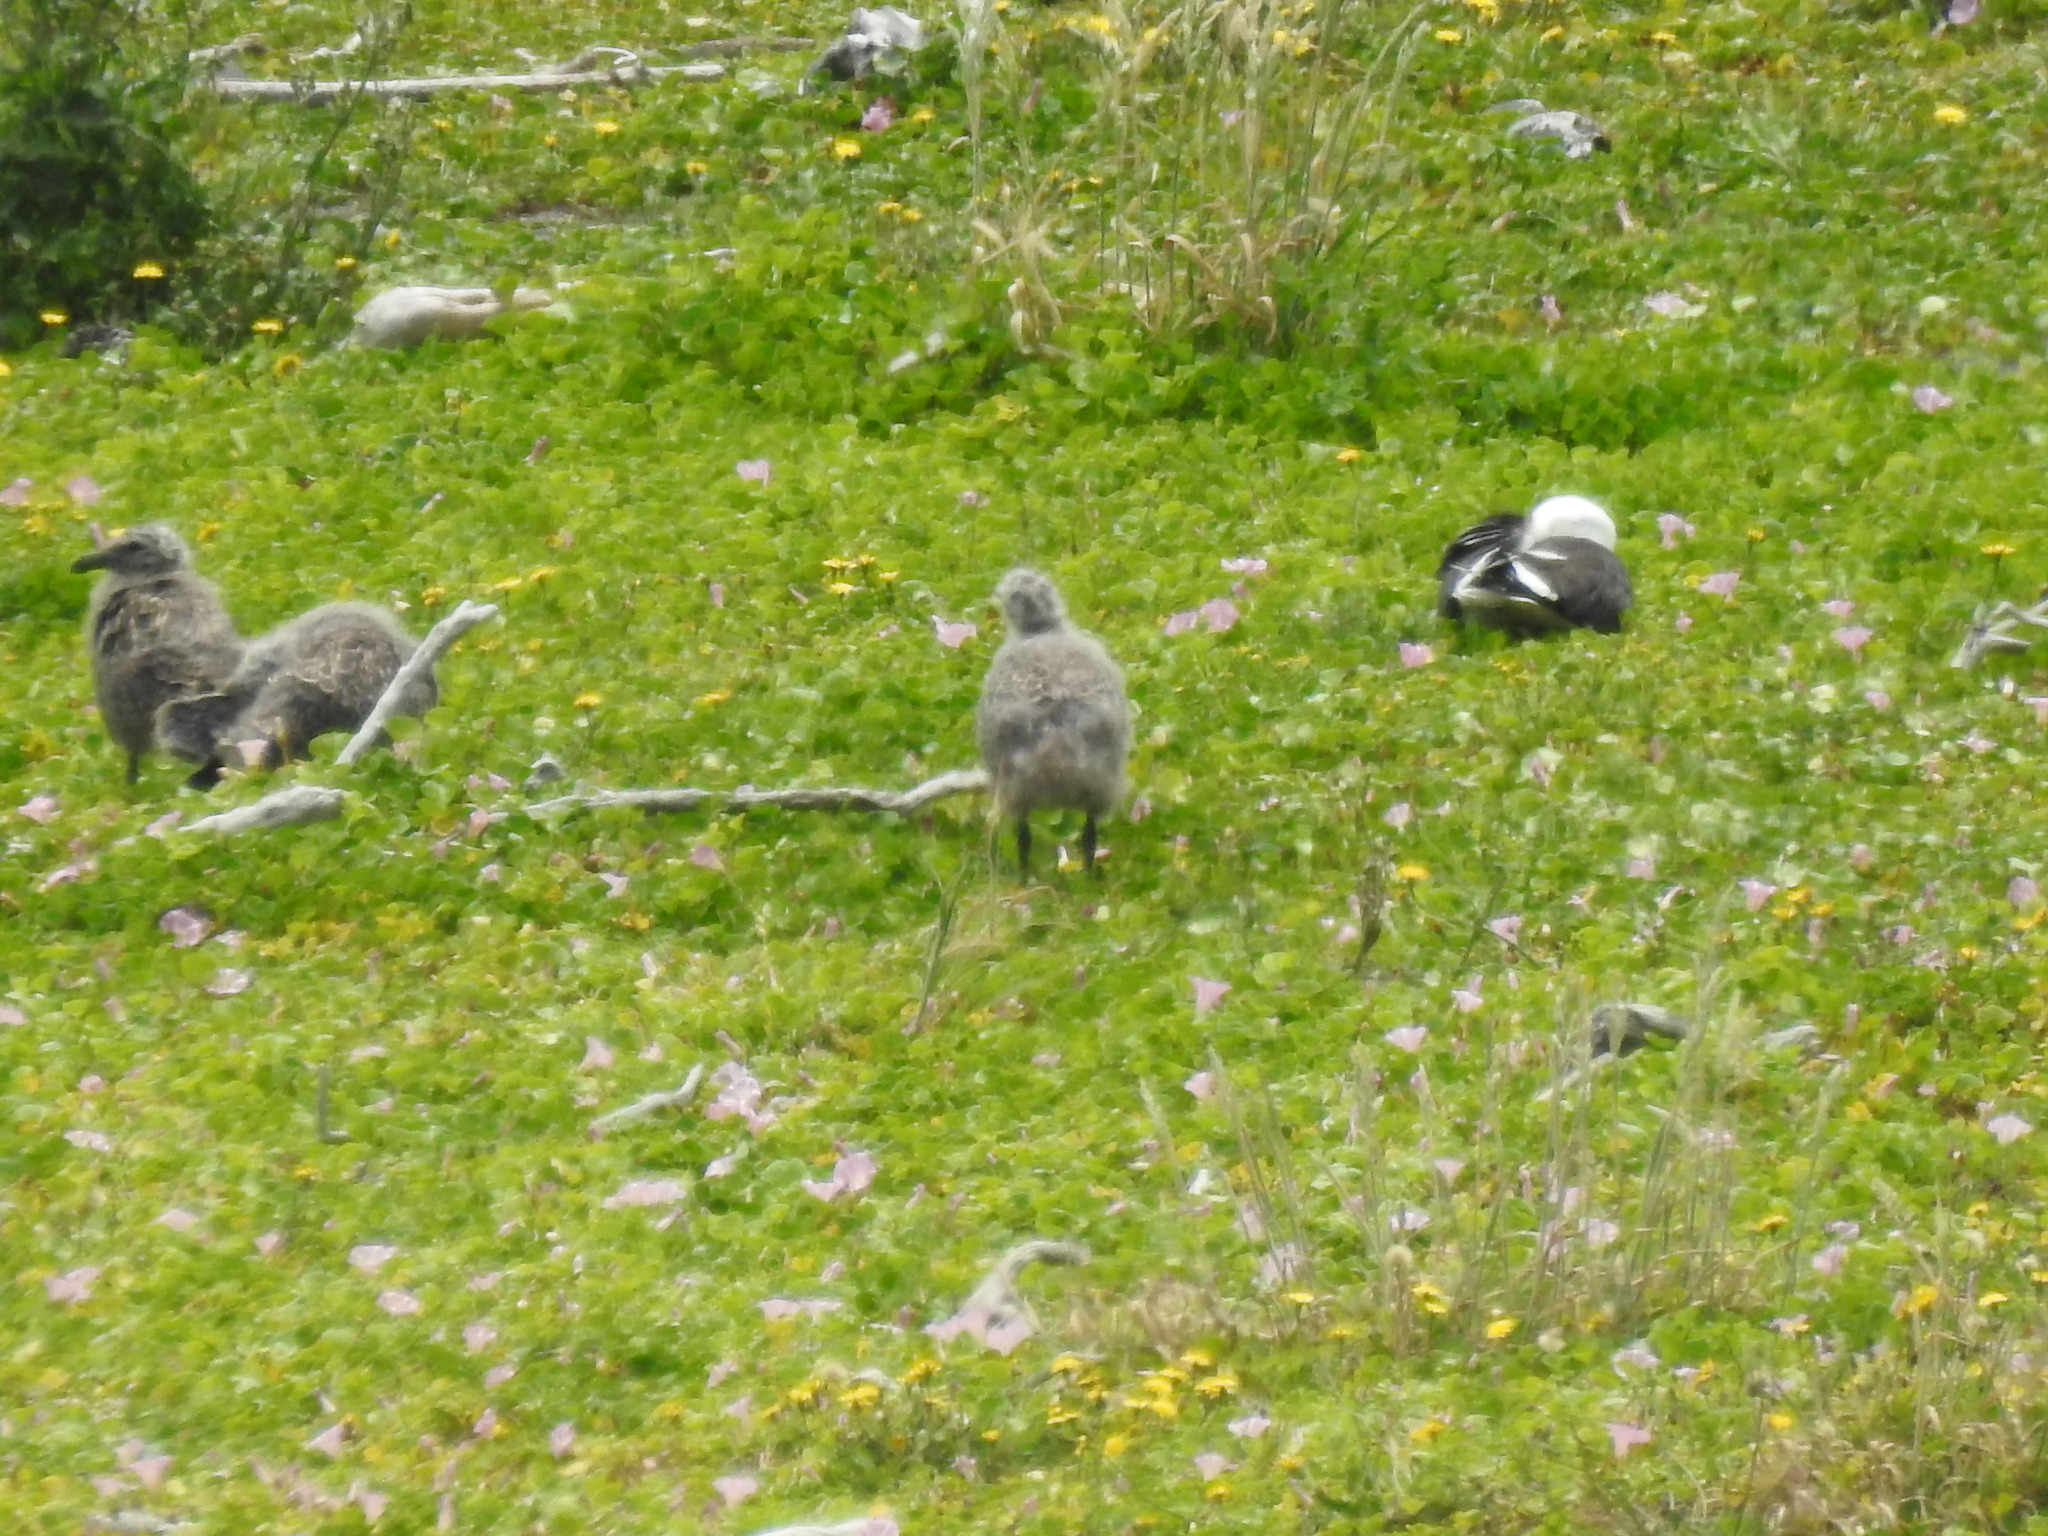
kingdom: Animalia
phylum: Chordata
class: Aves
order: Charadriiformes
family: Laridae
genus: Larus
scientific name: Larus dominicanus
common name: Kelp gull
